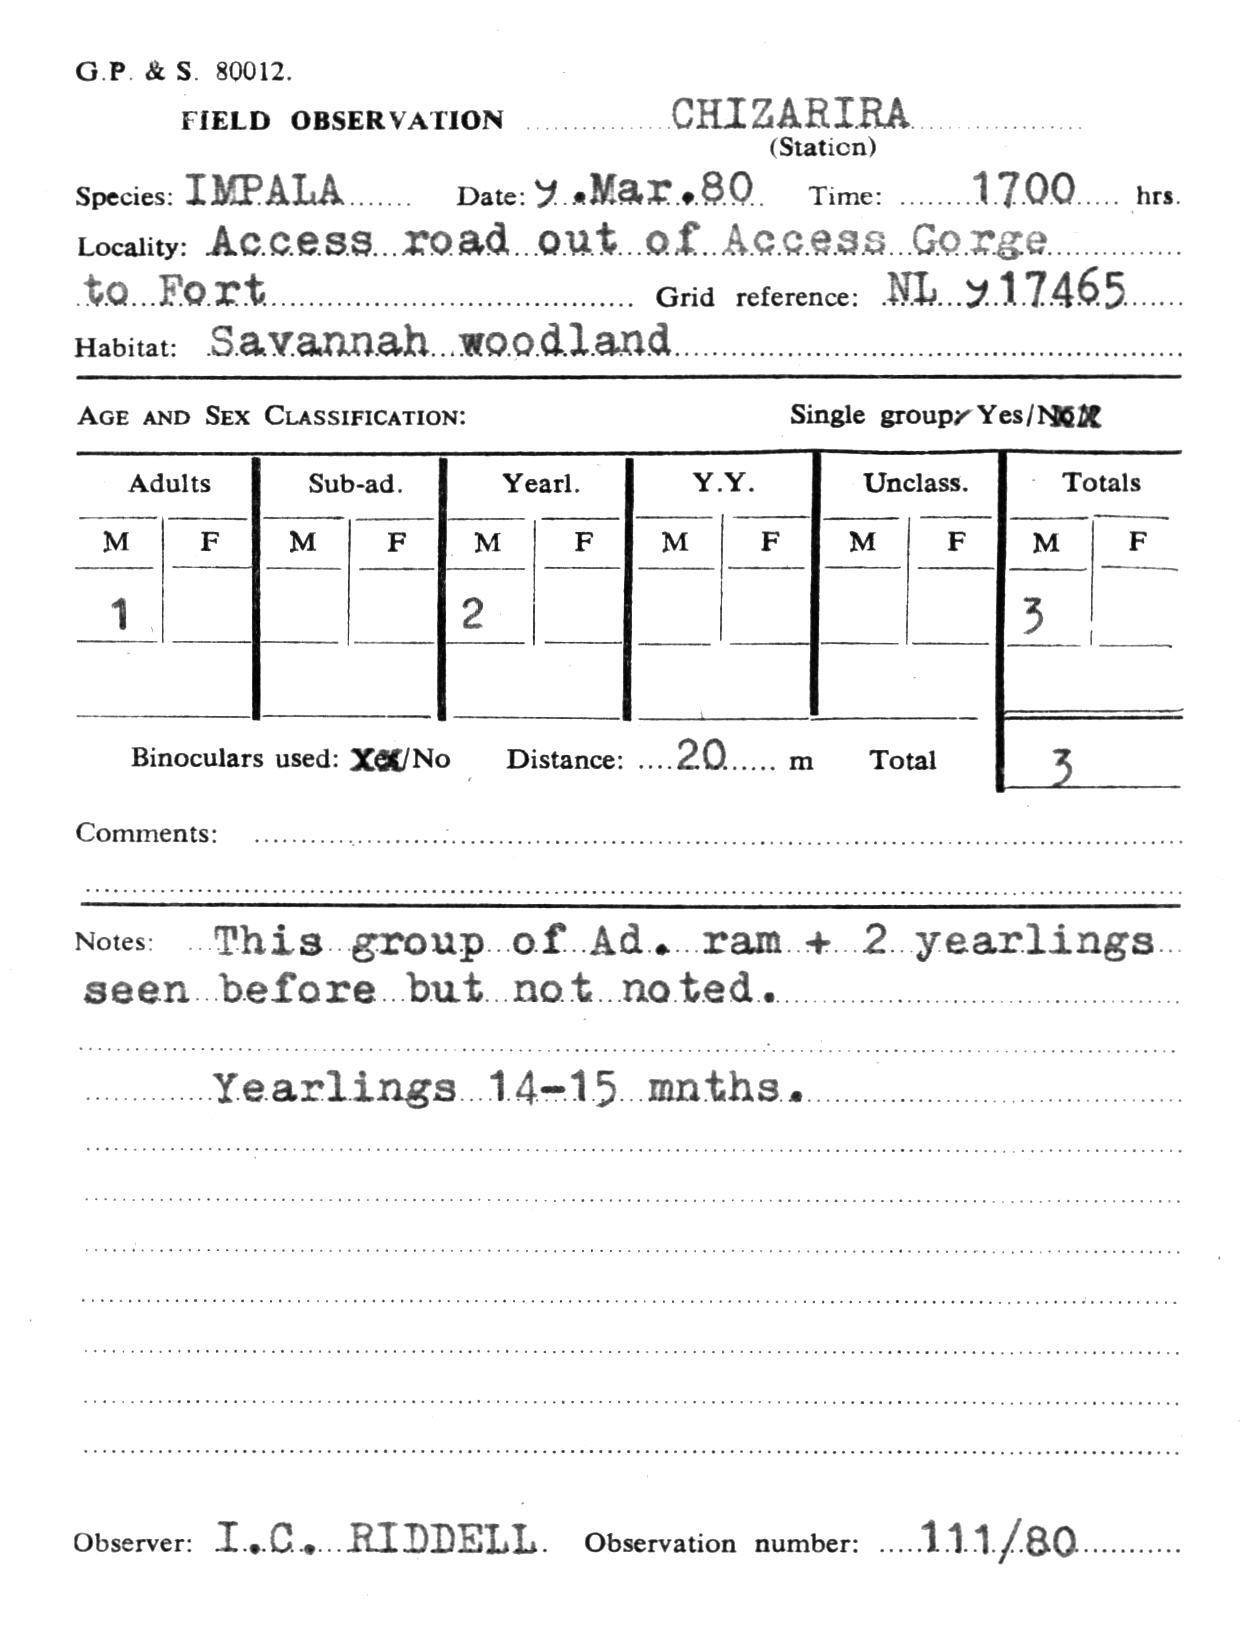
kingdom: Animalia
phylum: Chordata
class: Mammalia
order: Artiodactyla
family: Bovidae
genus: Aepyceros
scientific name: Aepyceros melampus
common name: Impala
